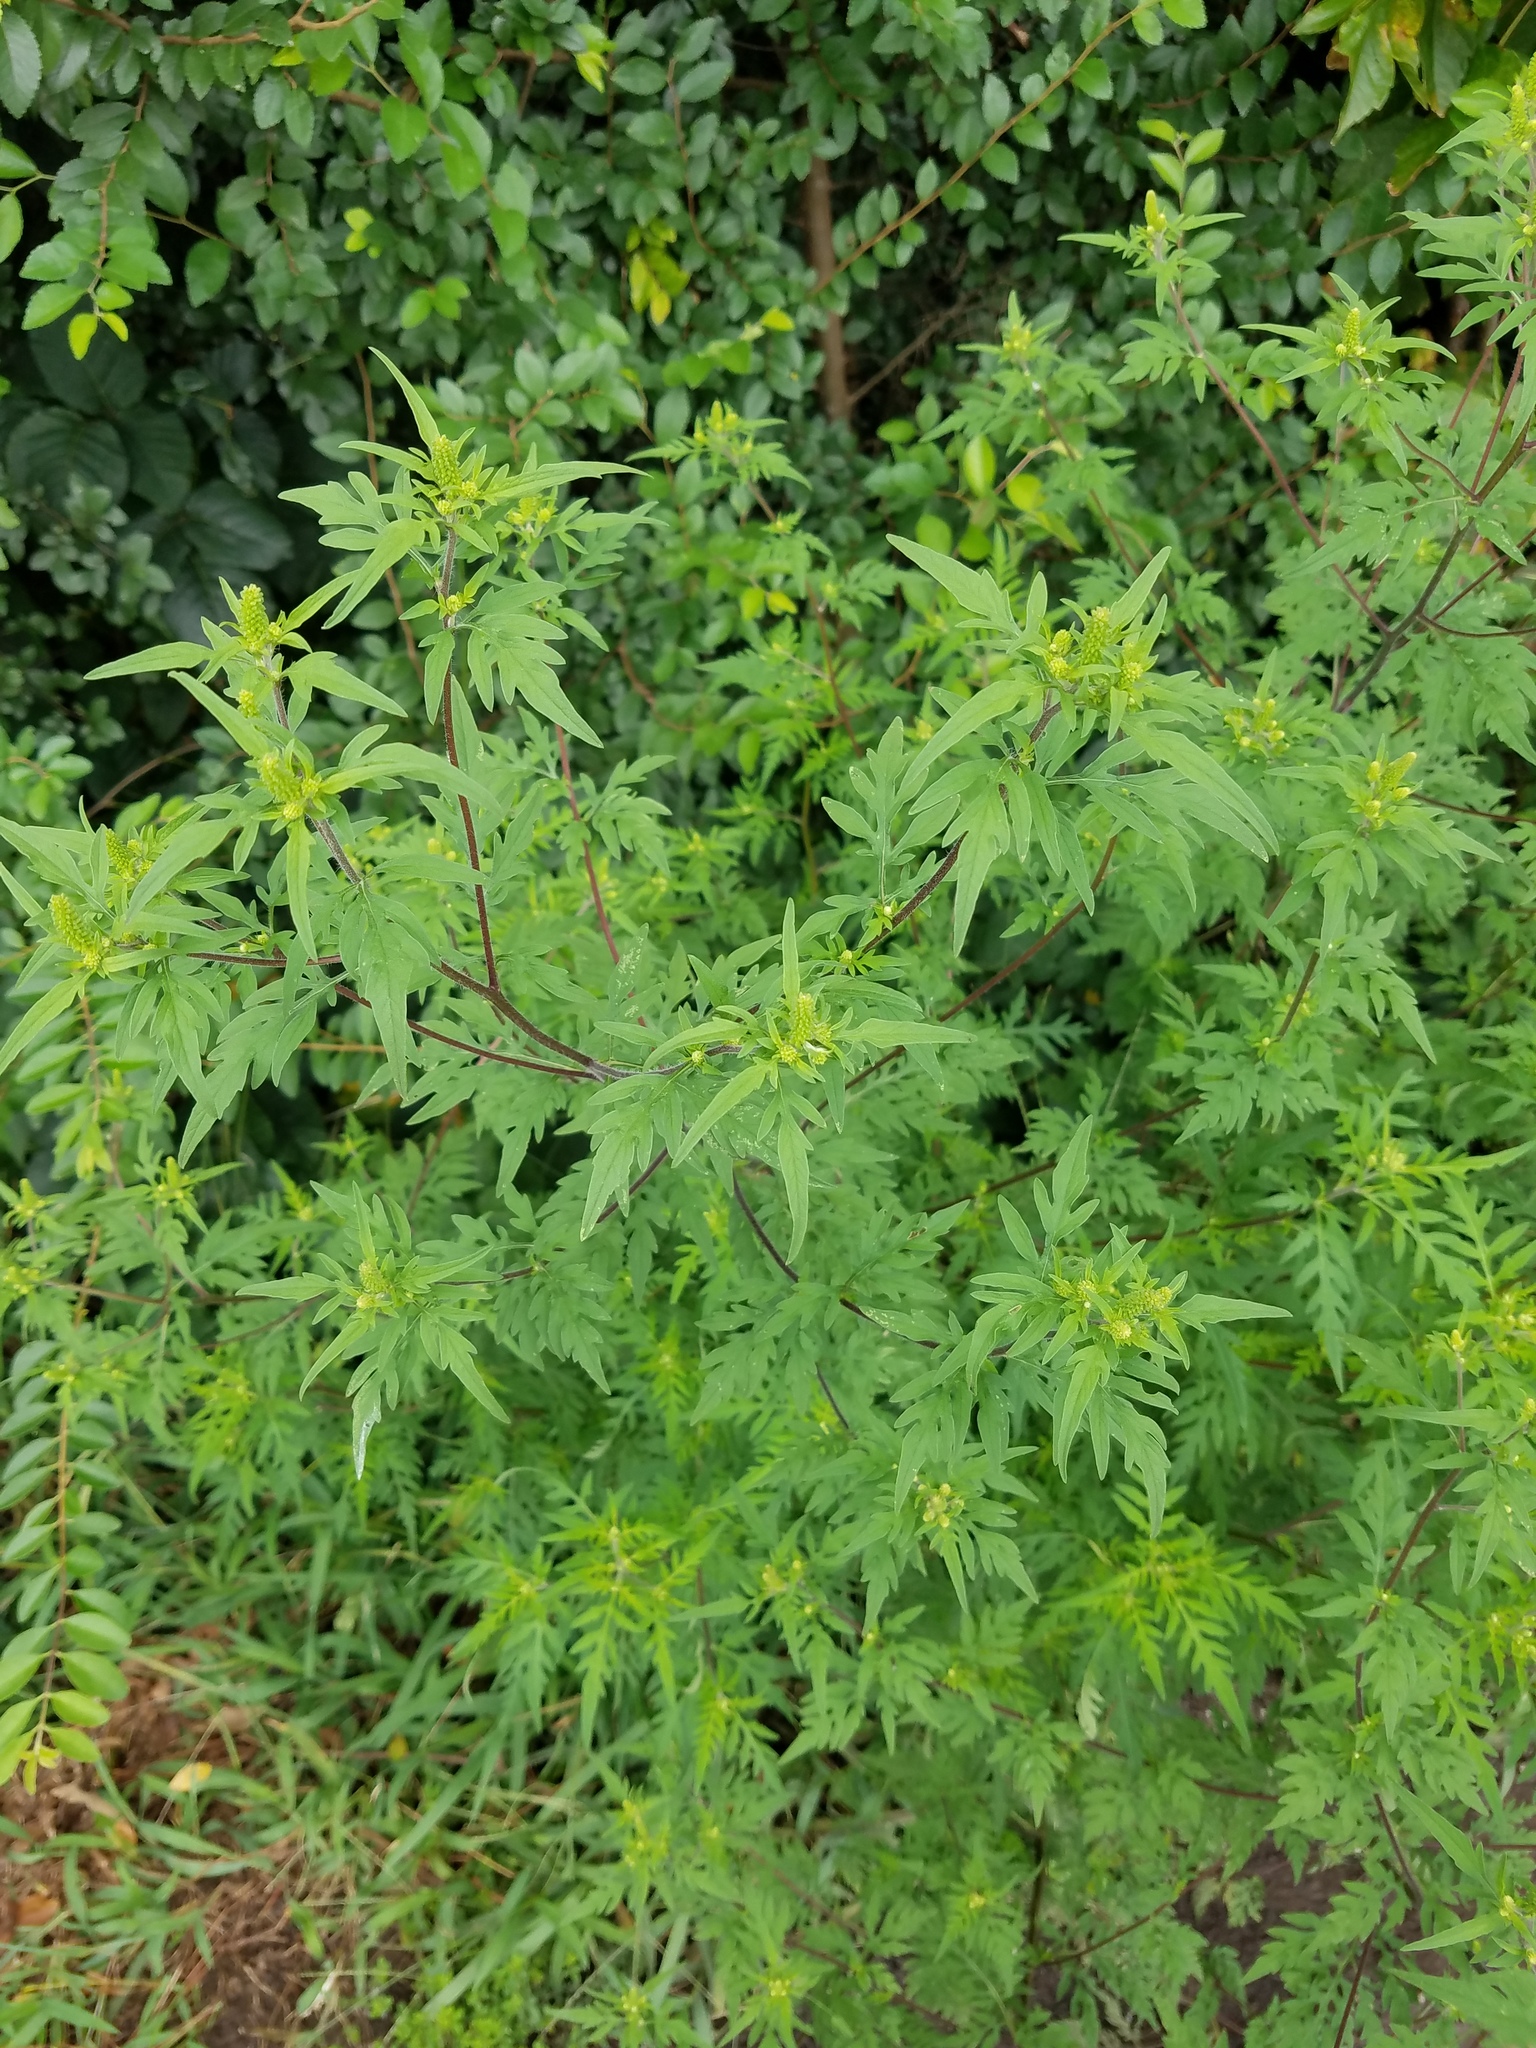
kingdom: Plantae
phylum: Tracheophyta
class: Magnoliopsida
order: Asterales
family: Asteraceae
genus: Ambrosia
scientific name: Ambrosia artemisiifolia
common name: Annual ragweed
